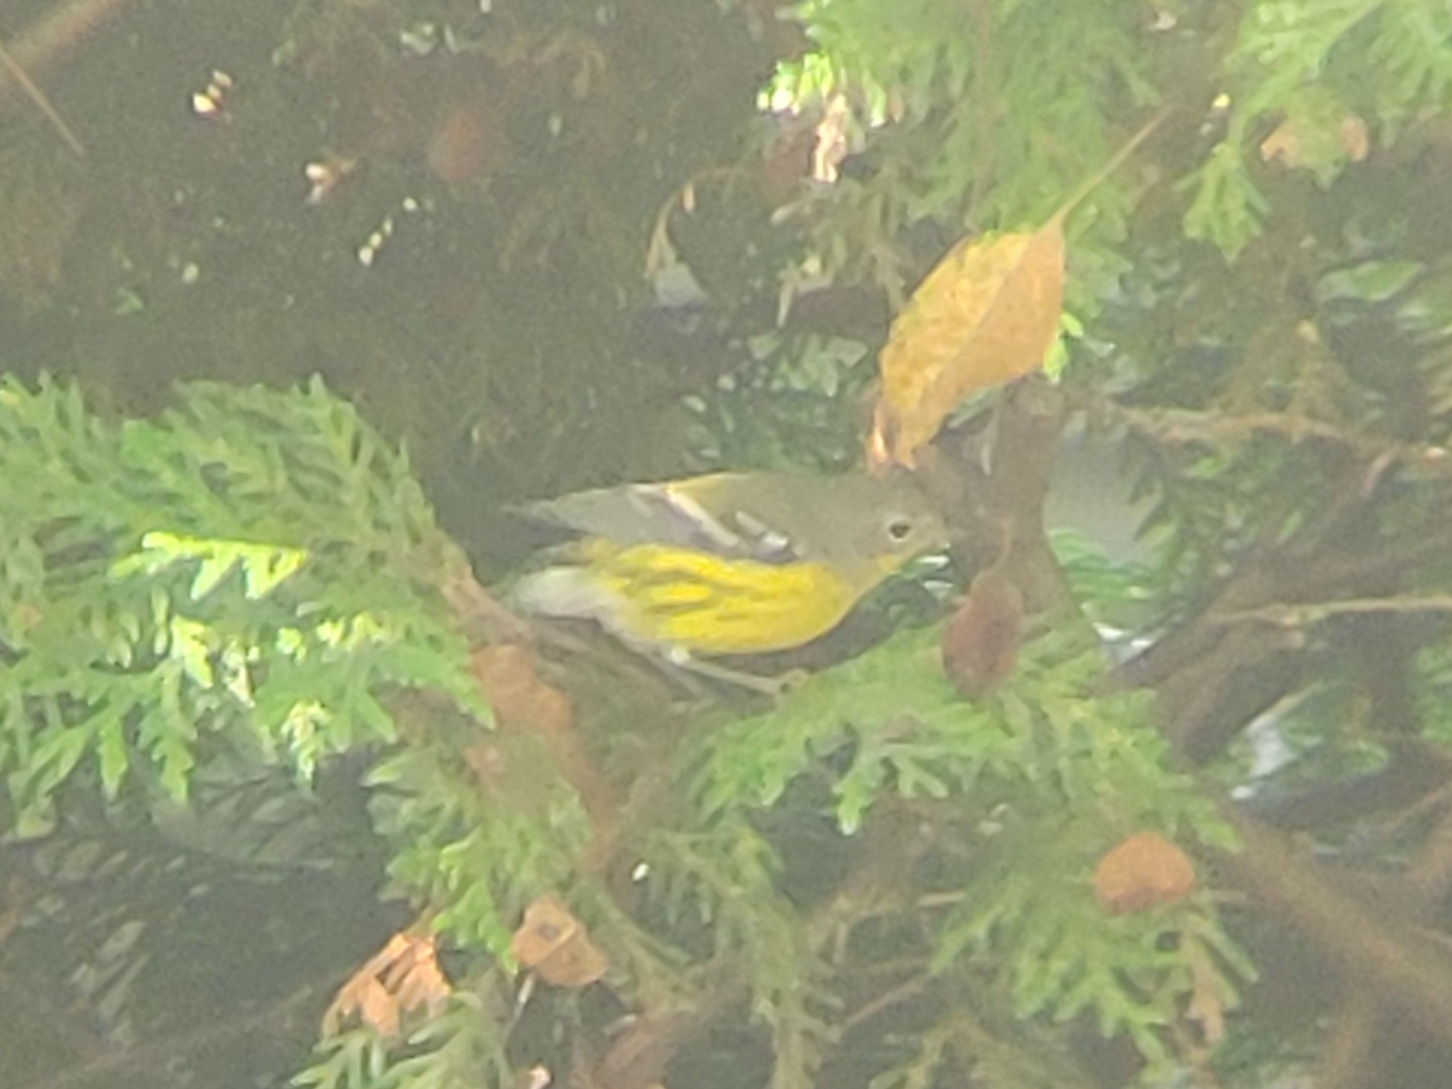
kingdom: Animalia
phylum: Chordata
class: Aves
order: Passeriformes
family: Parulidae
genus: Setophaga
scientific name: Setophaga magnolia
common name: Magnolia warbler
